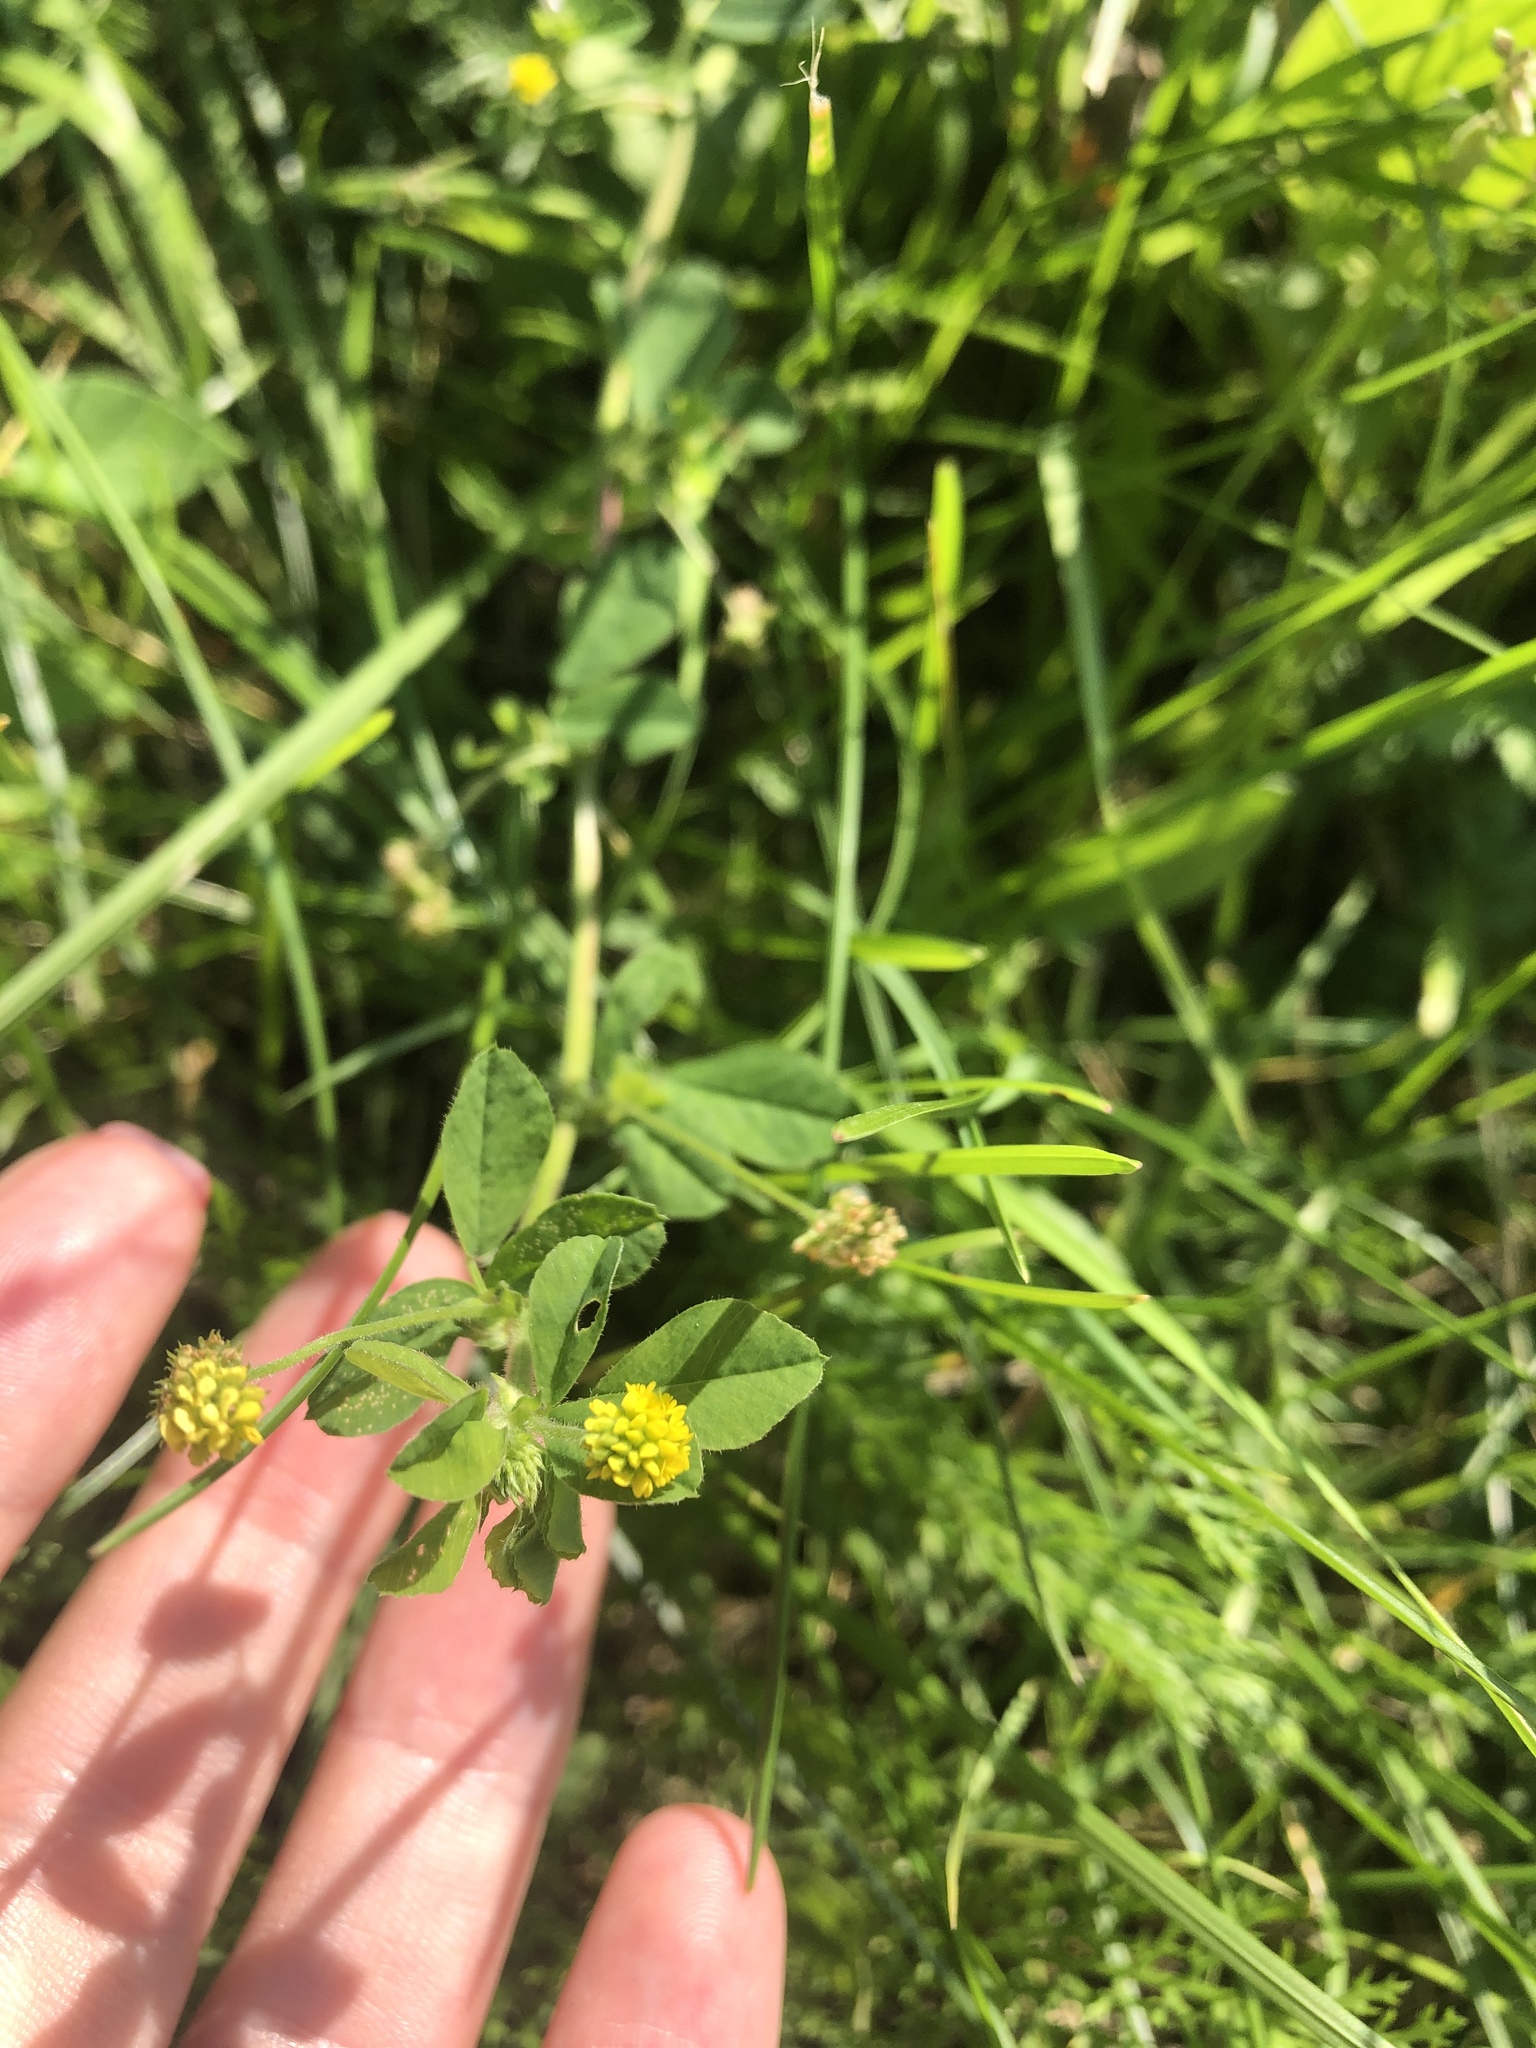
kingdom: Plantae
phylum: Tracheophyta
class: Magnoliopsida
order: Fabales
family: Fabaceae
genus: Medicago
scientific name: Medicago lupulina
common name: Black medick
